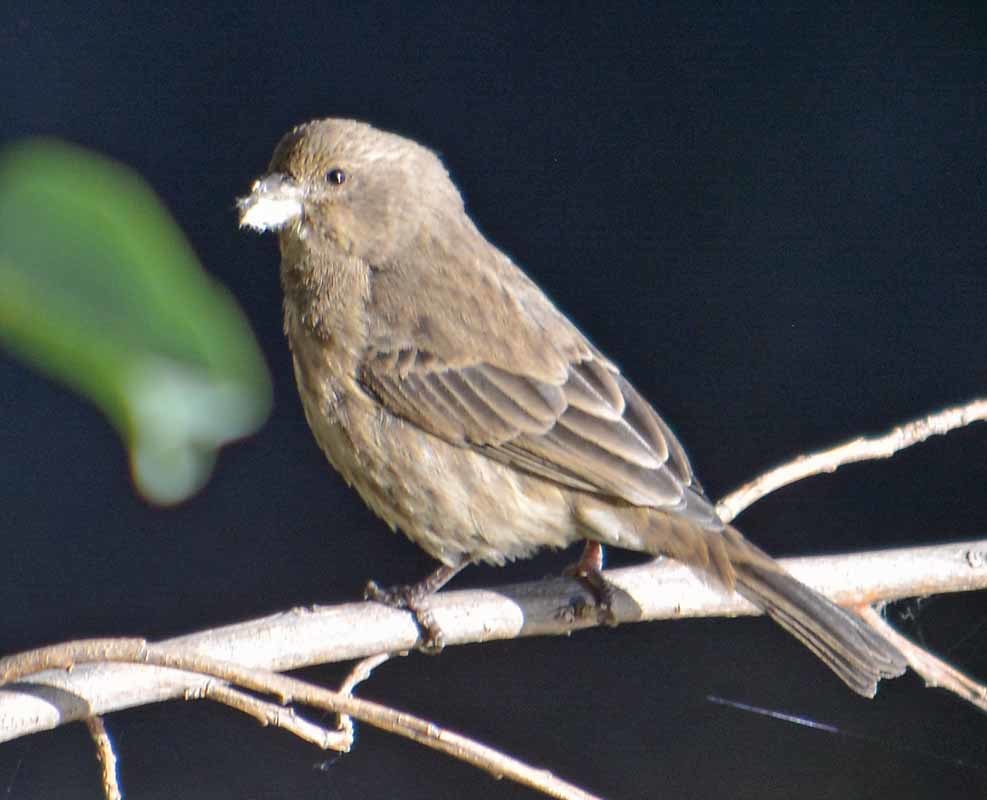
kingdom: Animalia
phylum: Chordata
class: Aves
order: Passeriformes
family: Fringillidae
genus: Haemorhous
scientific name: Haemorhous mexicanus
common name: House finch
